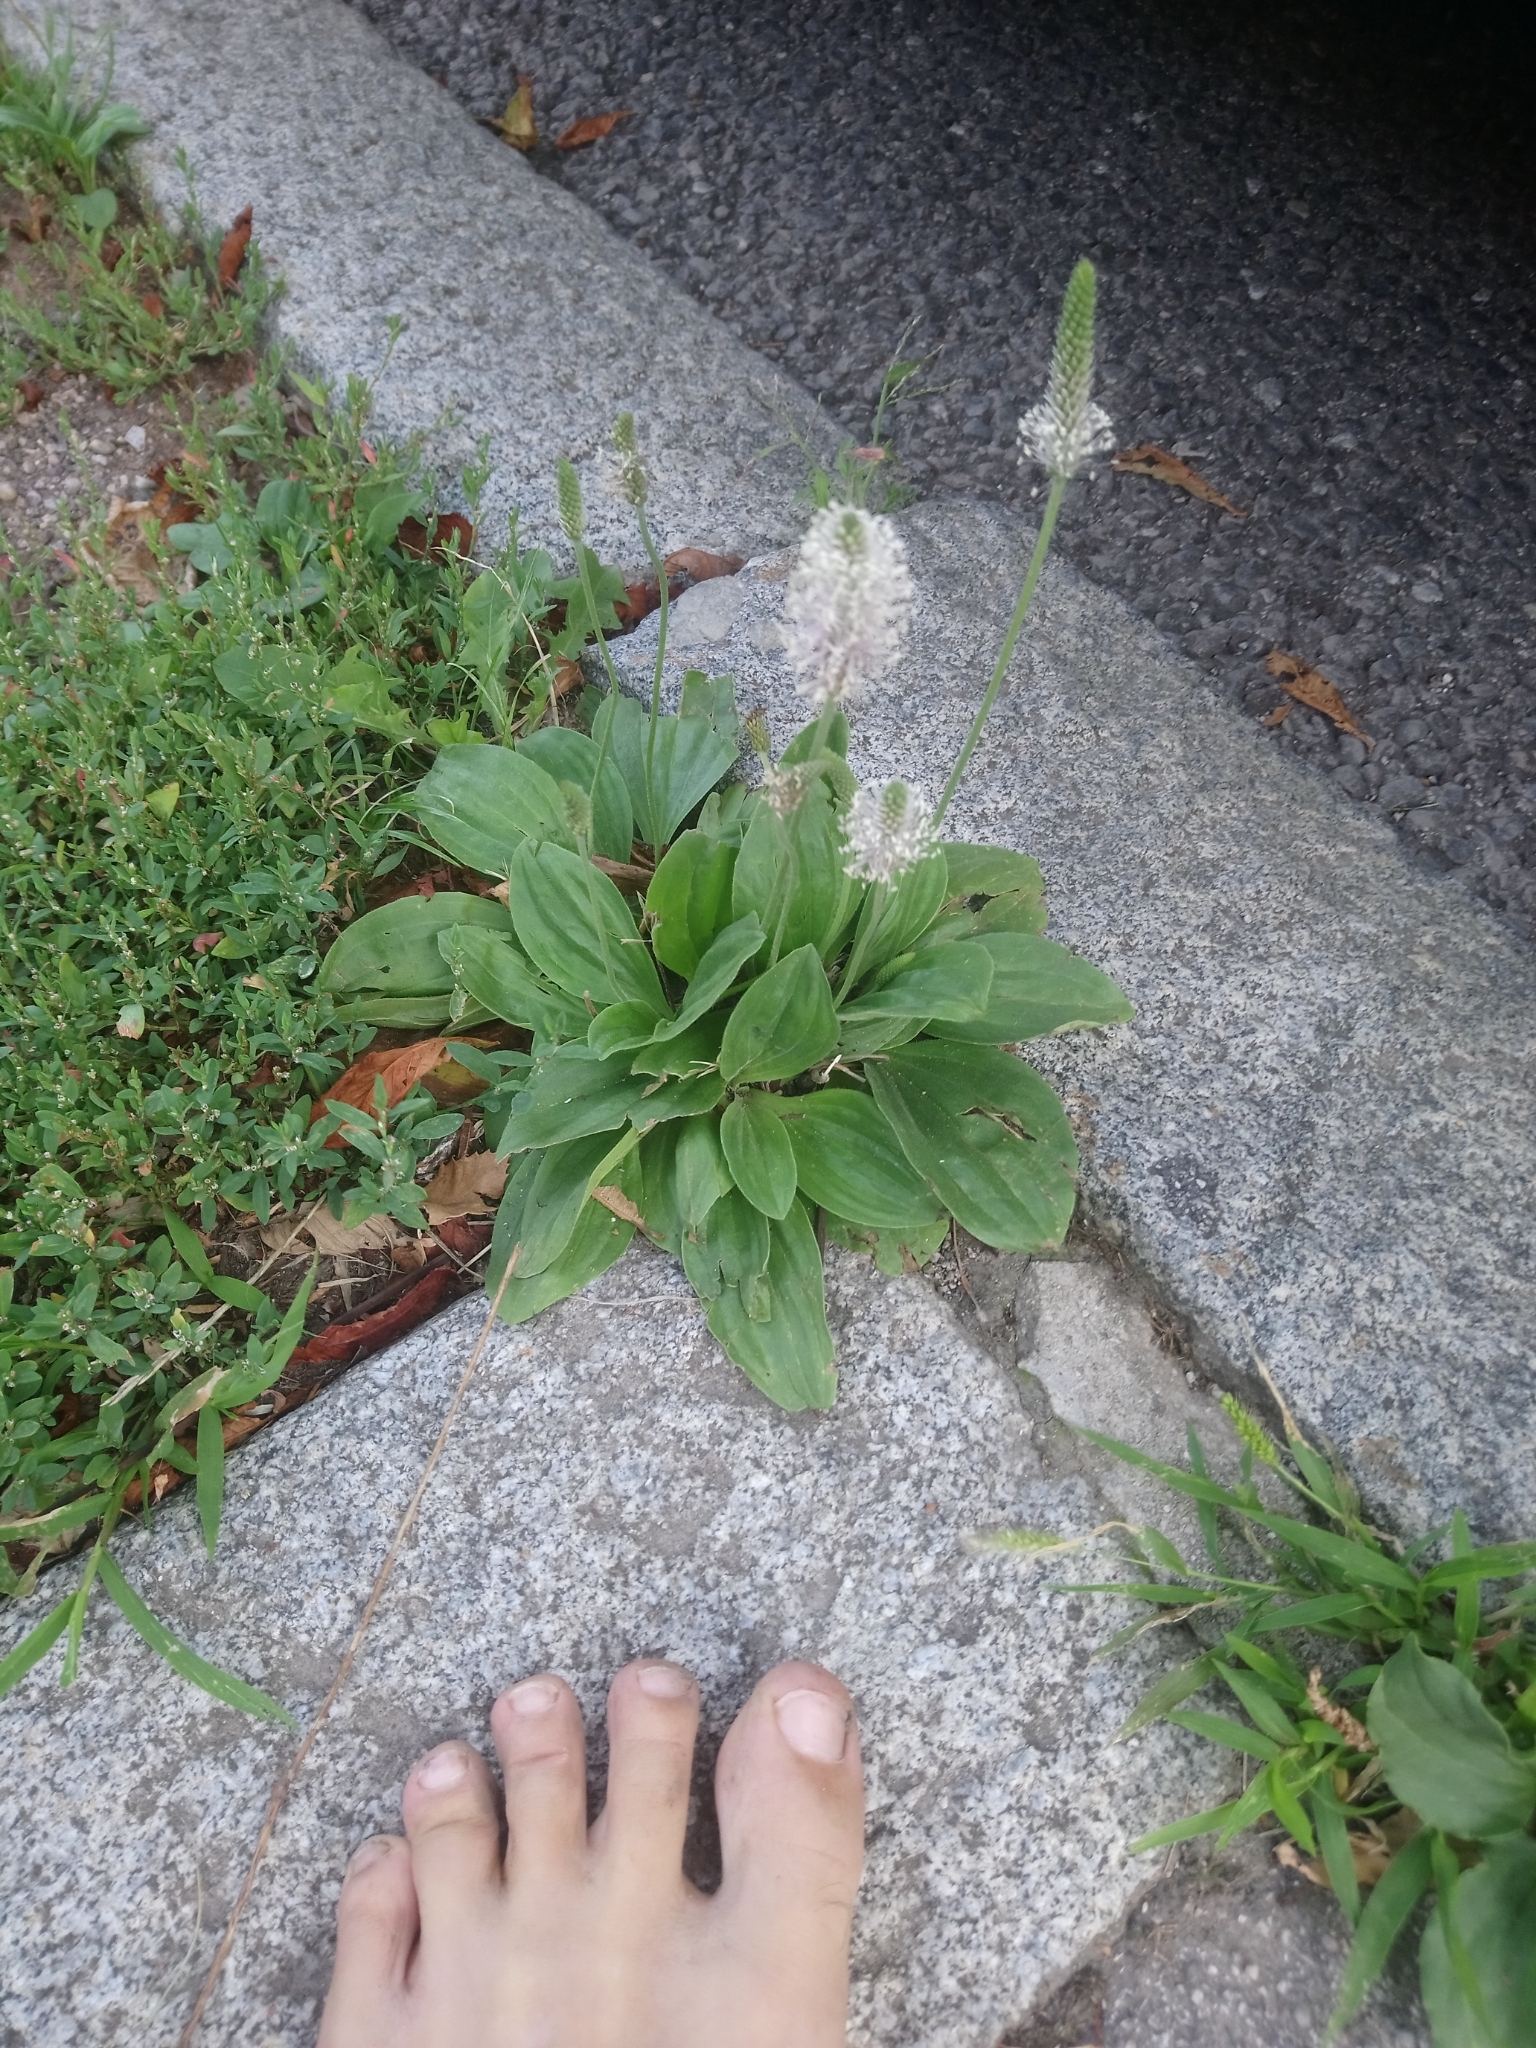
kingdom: Plantae
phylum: Tracheophyta
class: Magnoliopsida
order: Lamiales
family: Plantaginaceae
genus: Plantago
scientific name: Plantago media
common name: Hoary plantain
